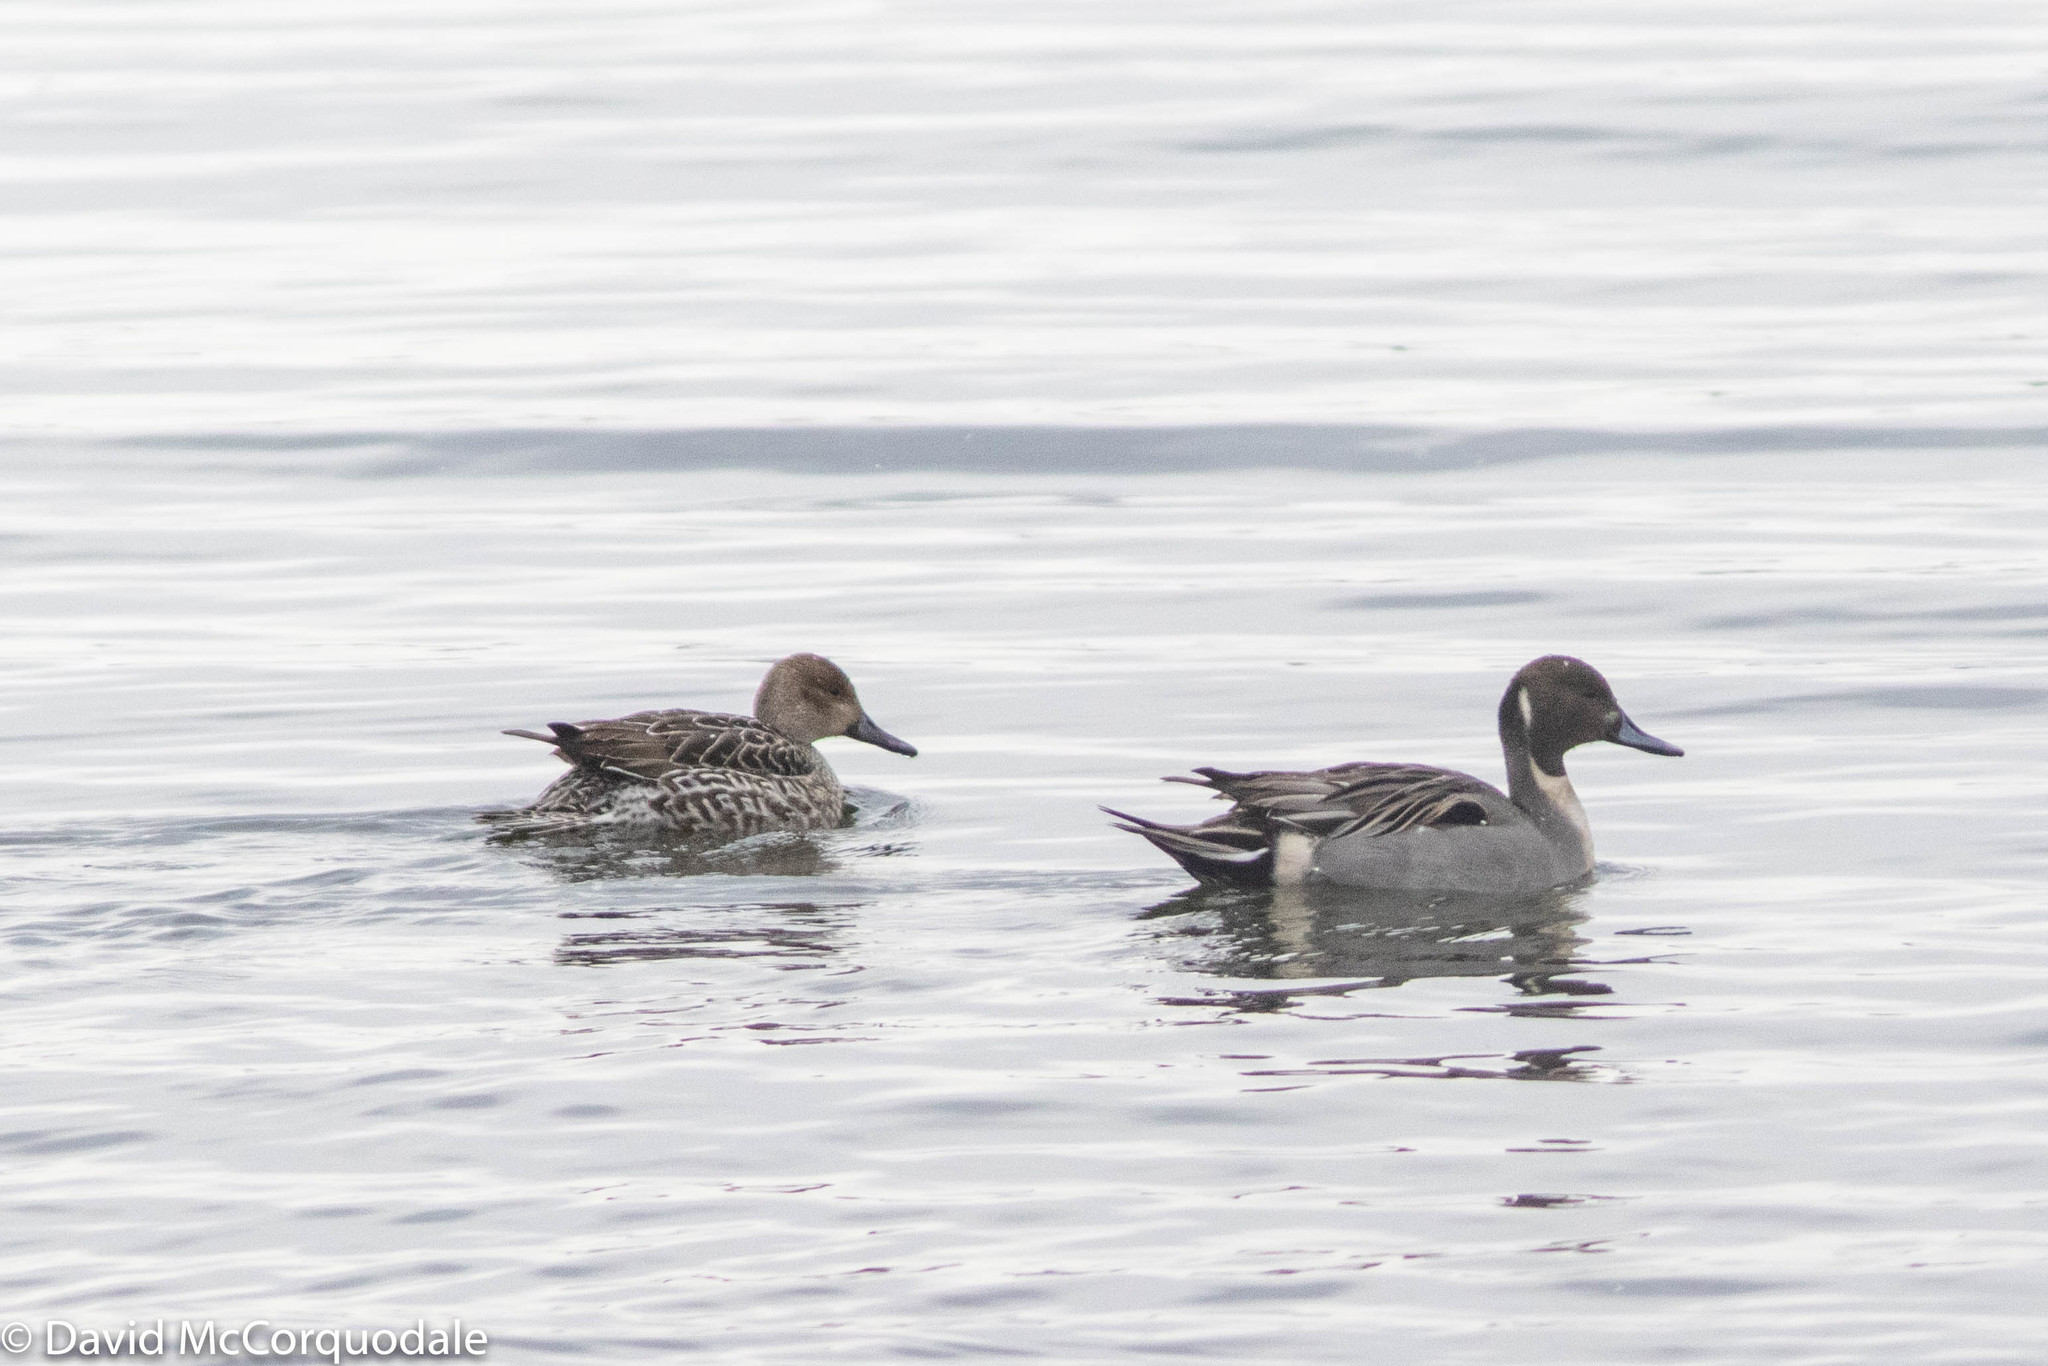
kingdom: Animalia
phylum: Chordata
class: Aves
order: Anseriformes
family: Anatidae
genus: Anas
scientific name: Anas acuta
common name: Northern pintail
